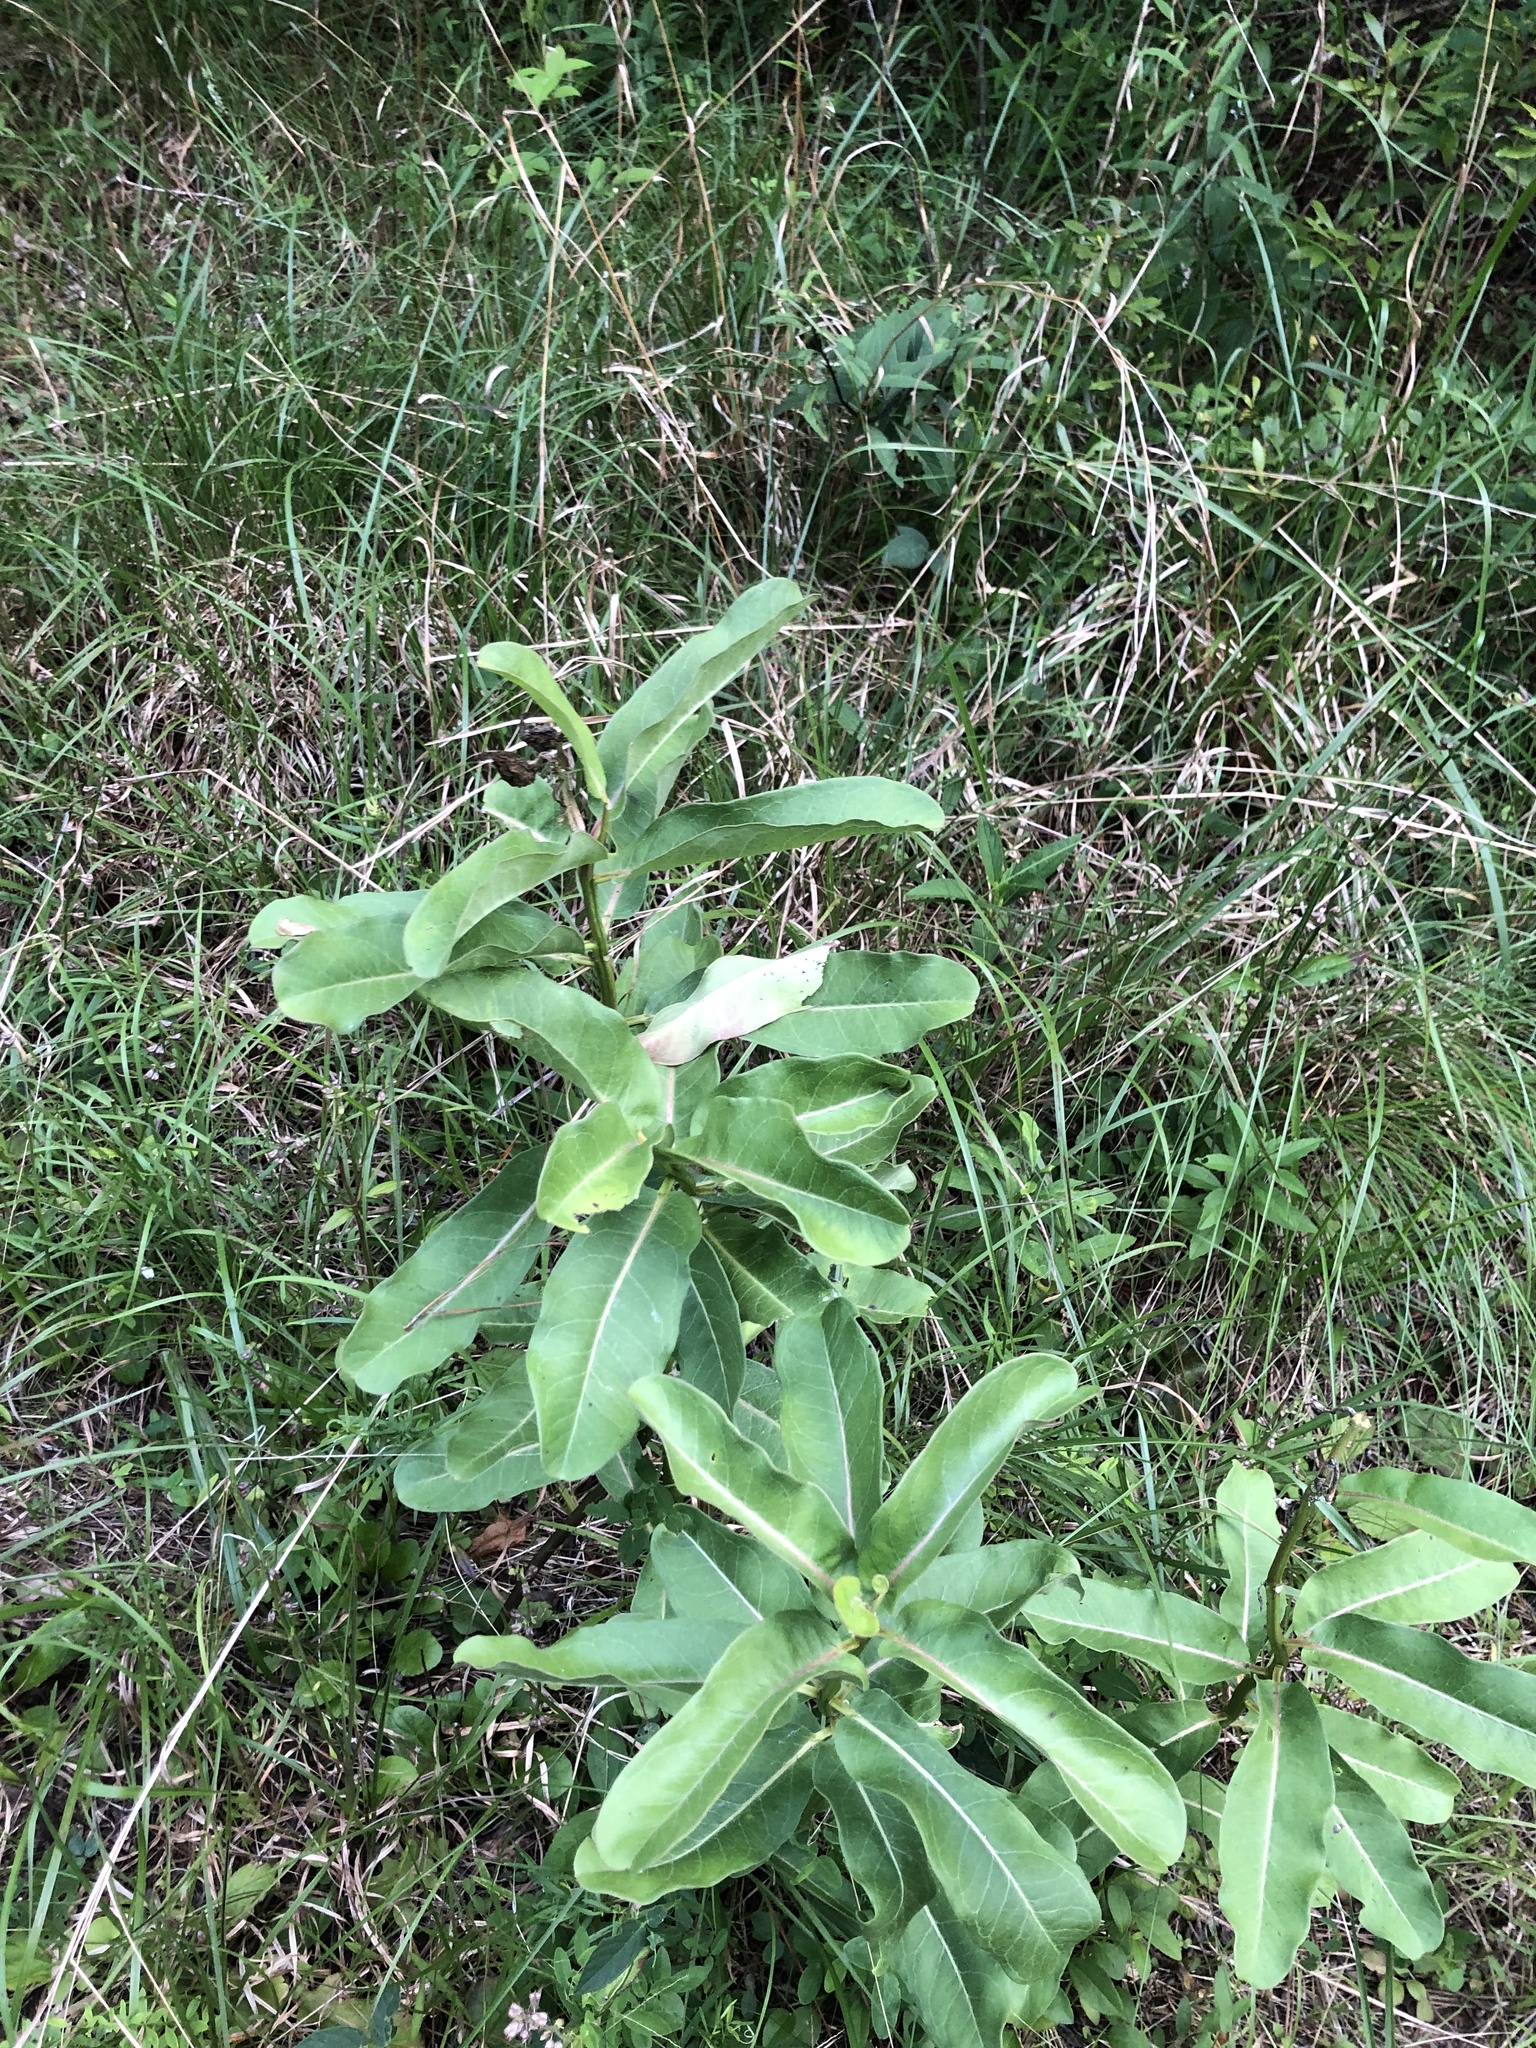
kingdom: Plantae
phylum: Tracheophyta
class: Magnoliopsida
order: Gentianales
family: Apocynaceae
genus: Asclepias
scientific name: Asclepias viridis
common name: Antelope-horns
